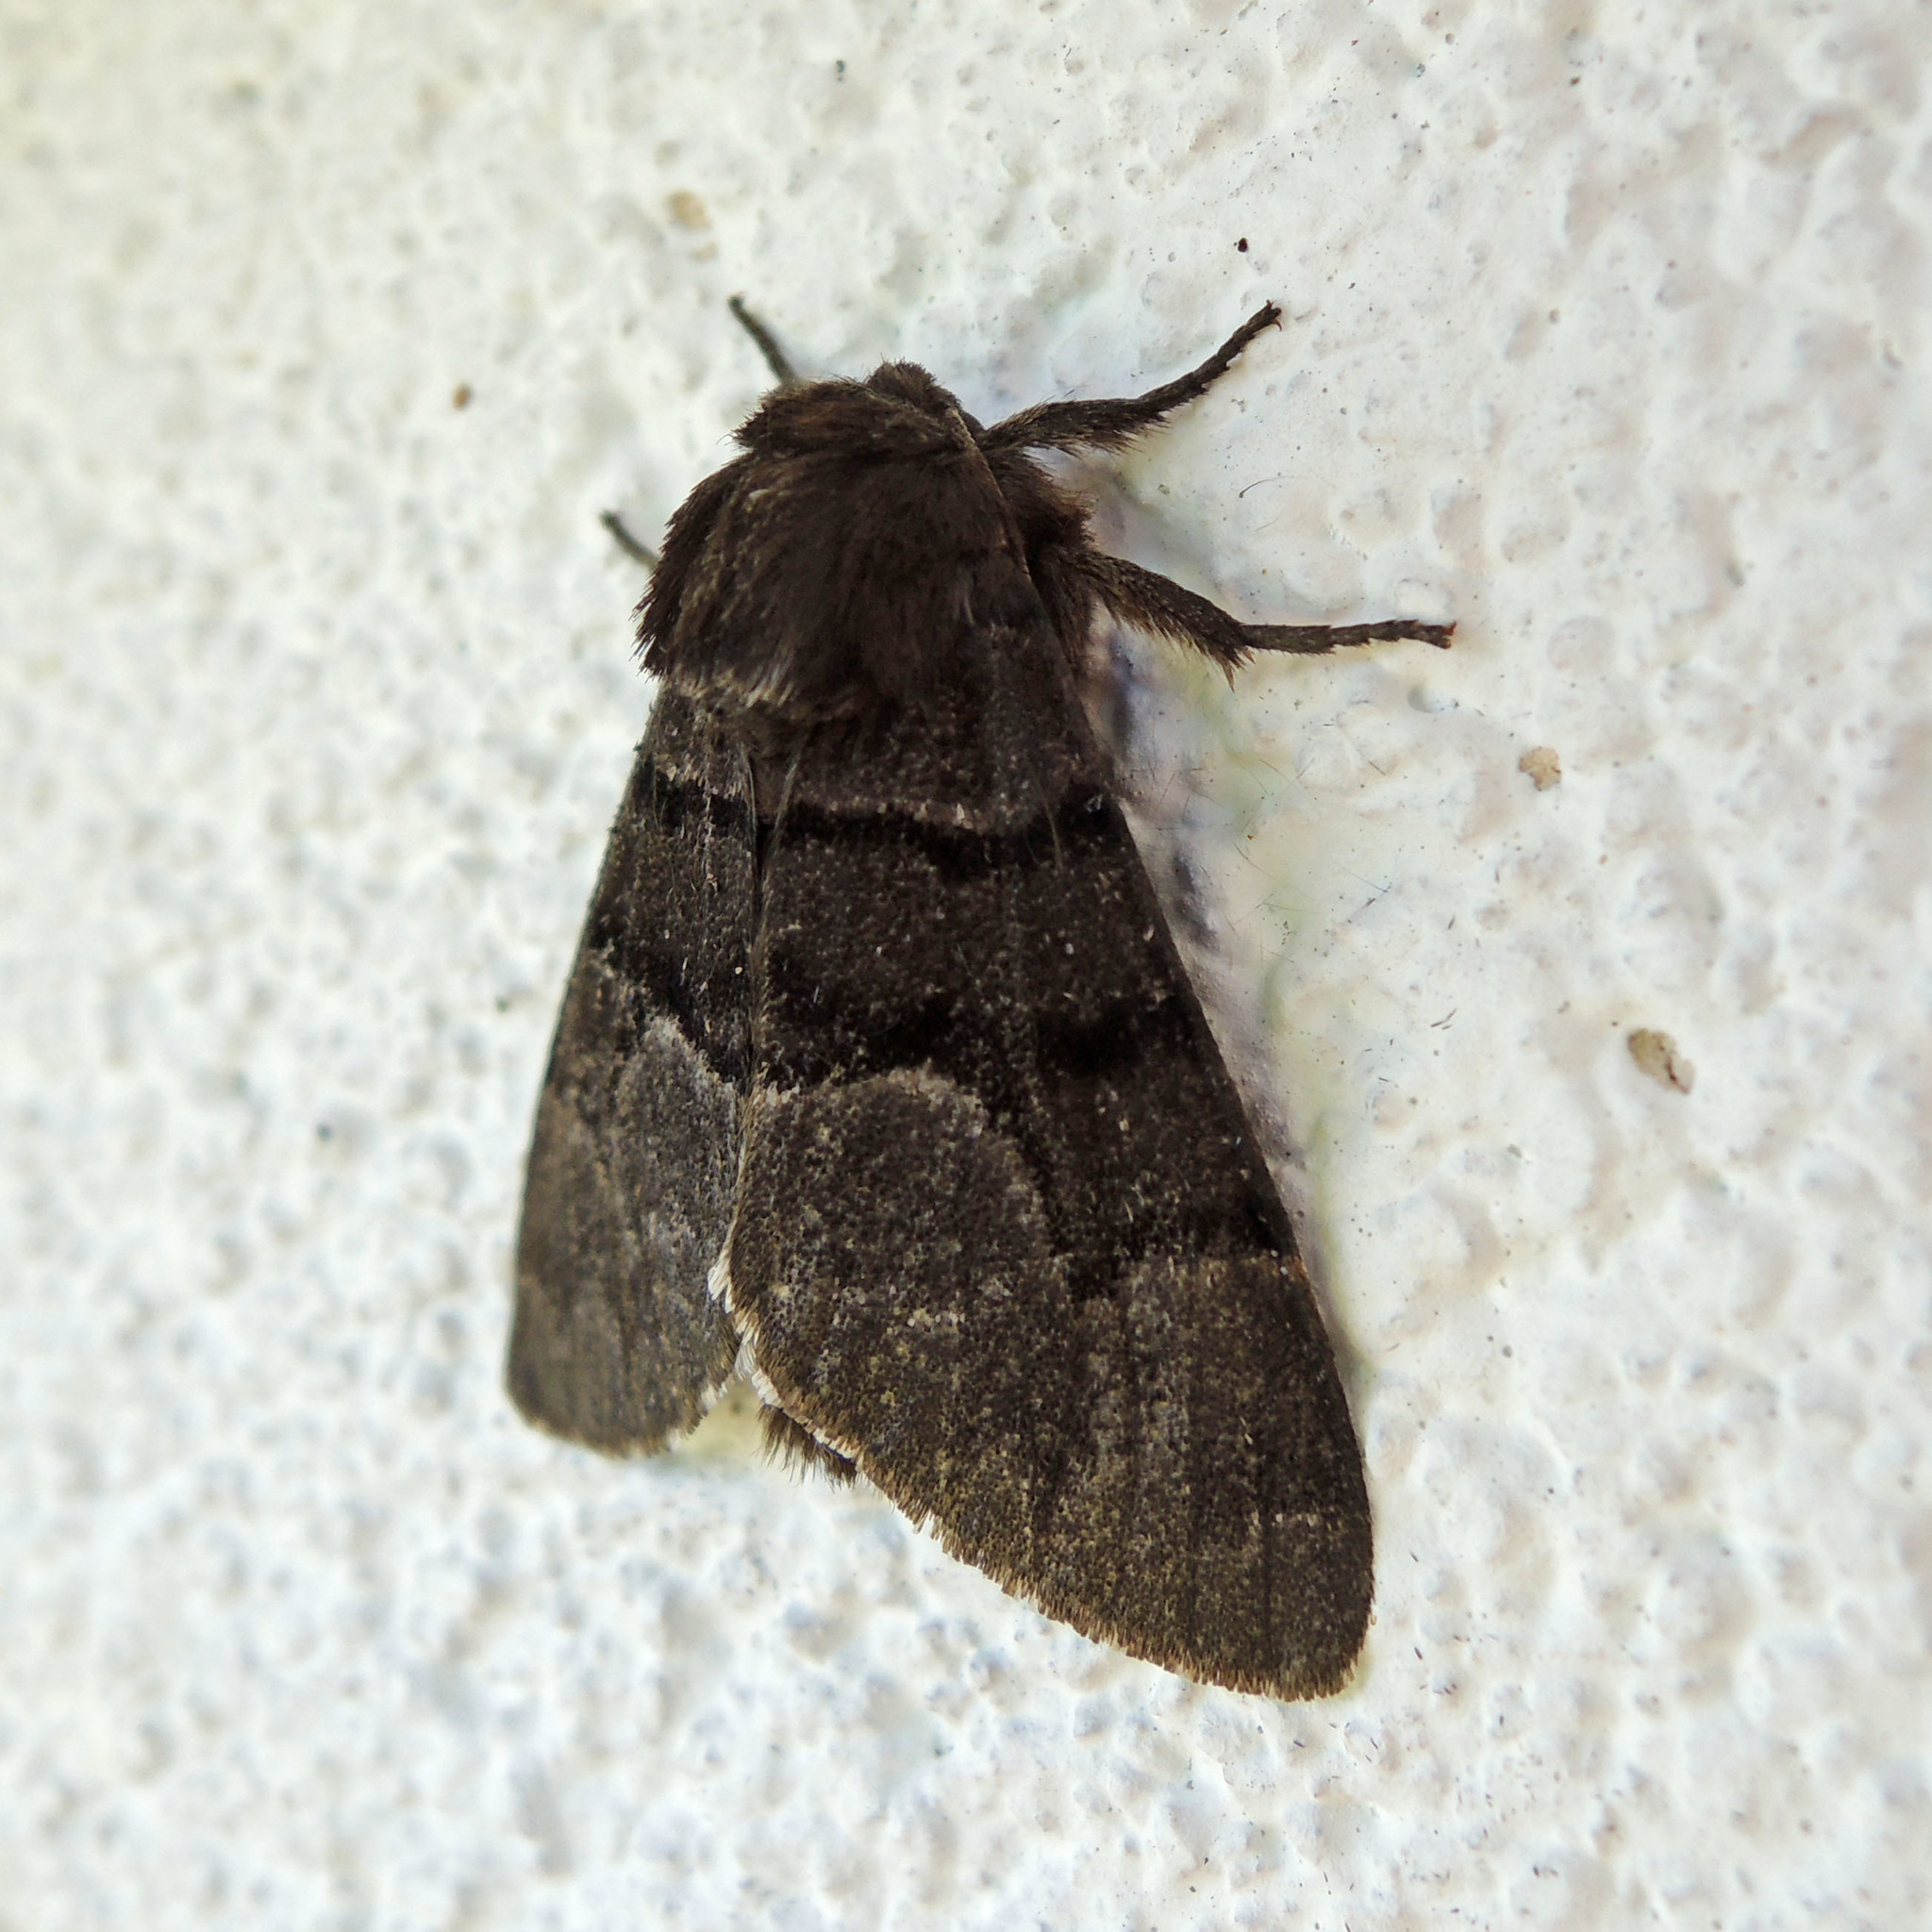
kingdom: Animalia
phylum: Arthropoda
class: Insecta
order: Lepidoptera
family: Noctuidae
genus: Panthea
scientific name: Panthea furcilla
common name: Eastern panthea moth
